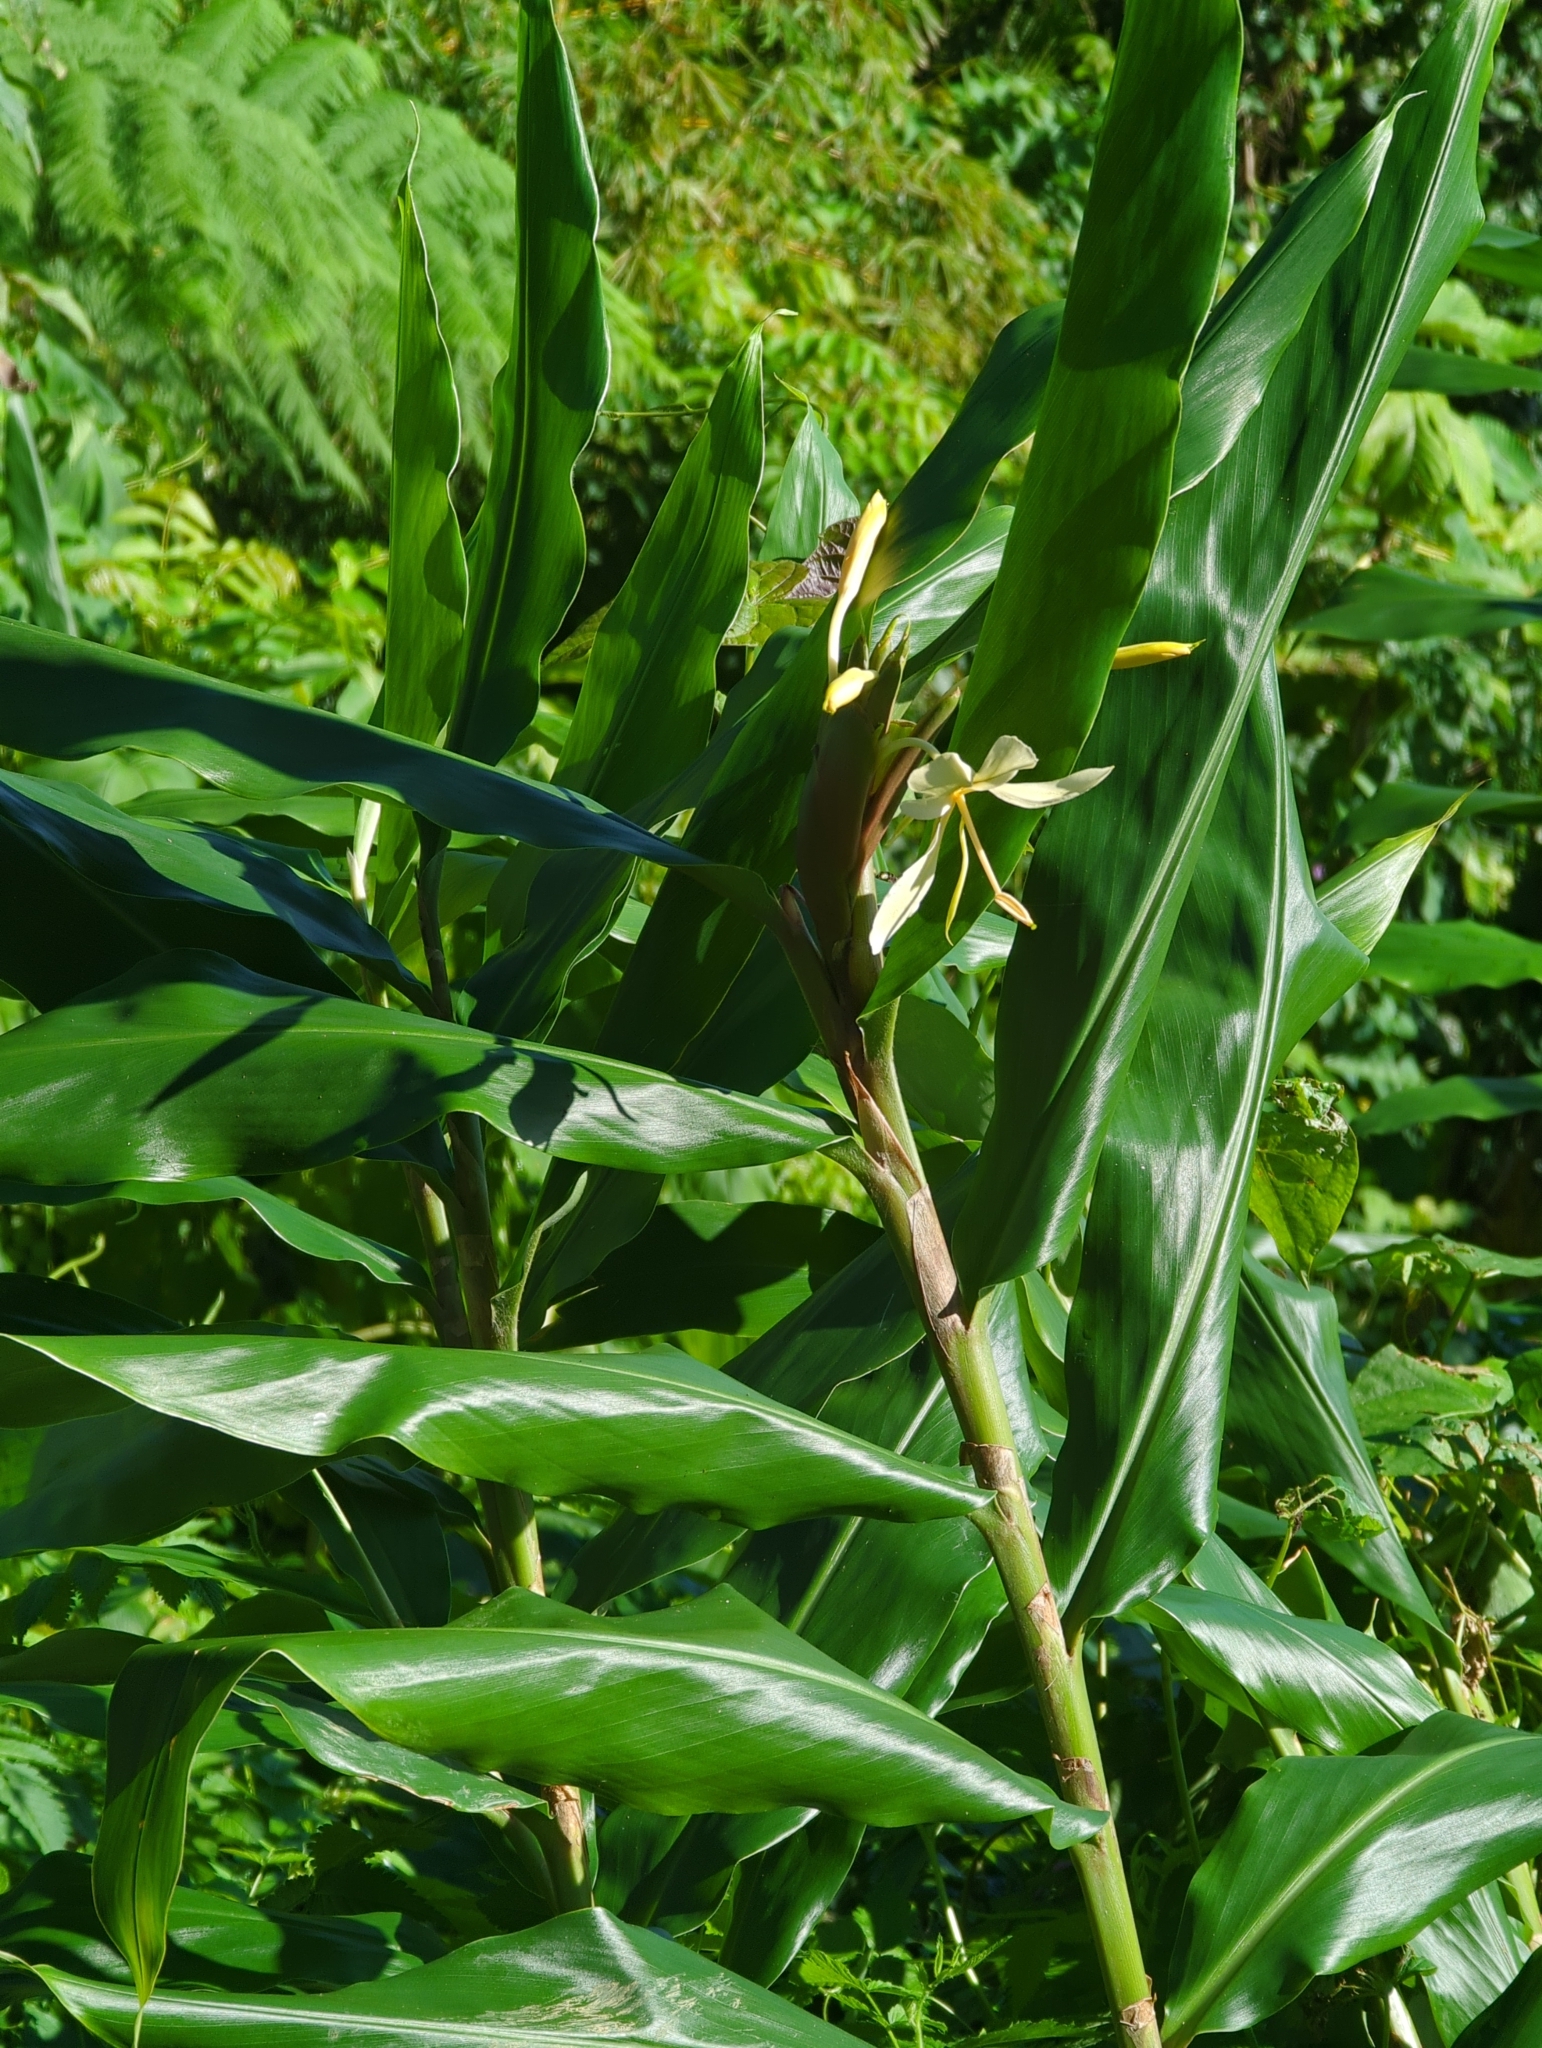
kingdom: Plantae
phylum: Tracheophyta
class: Liliopsida
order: Zingiberales
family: Zingiberaceae
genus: Hedychium
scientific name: Hedychium flavescens
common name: Yellow ginger
